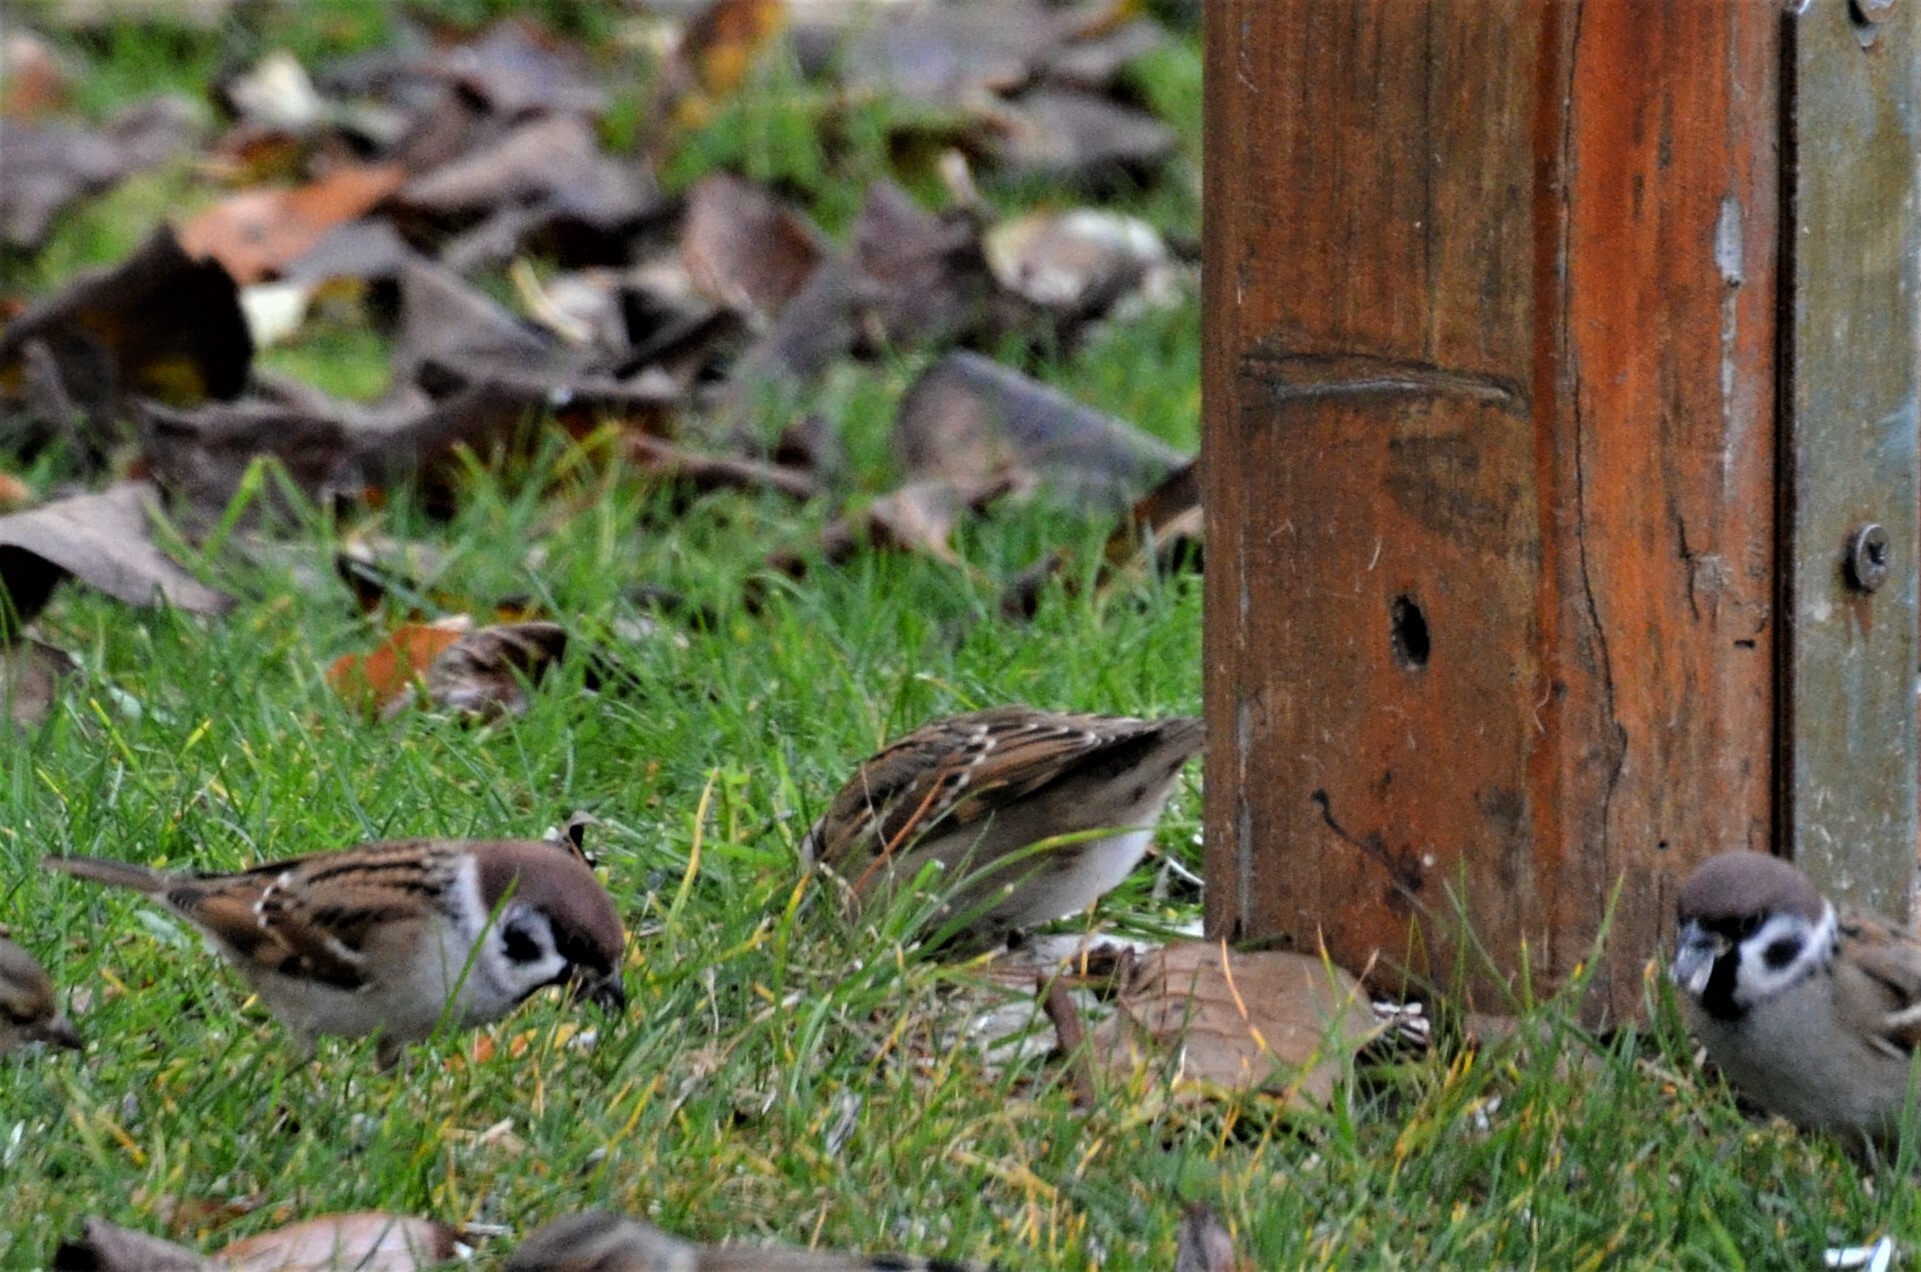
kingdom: Animalia
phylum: Chordata
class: Aves
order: Passeriformes
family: Passeridae
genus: Passer
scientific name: Passer montanus
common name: Eurasian tree sparrow
